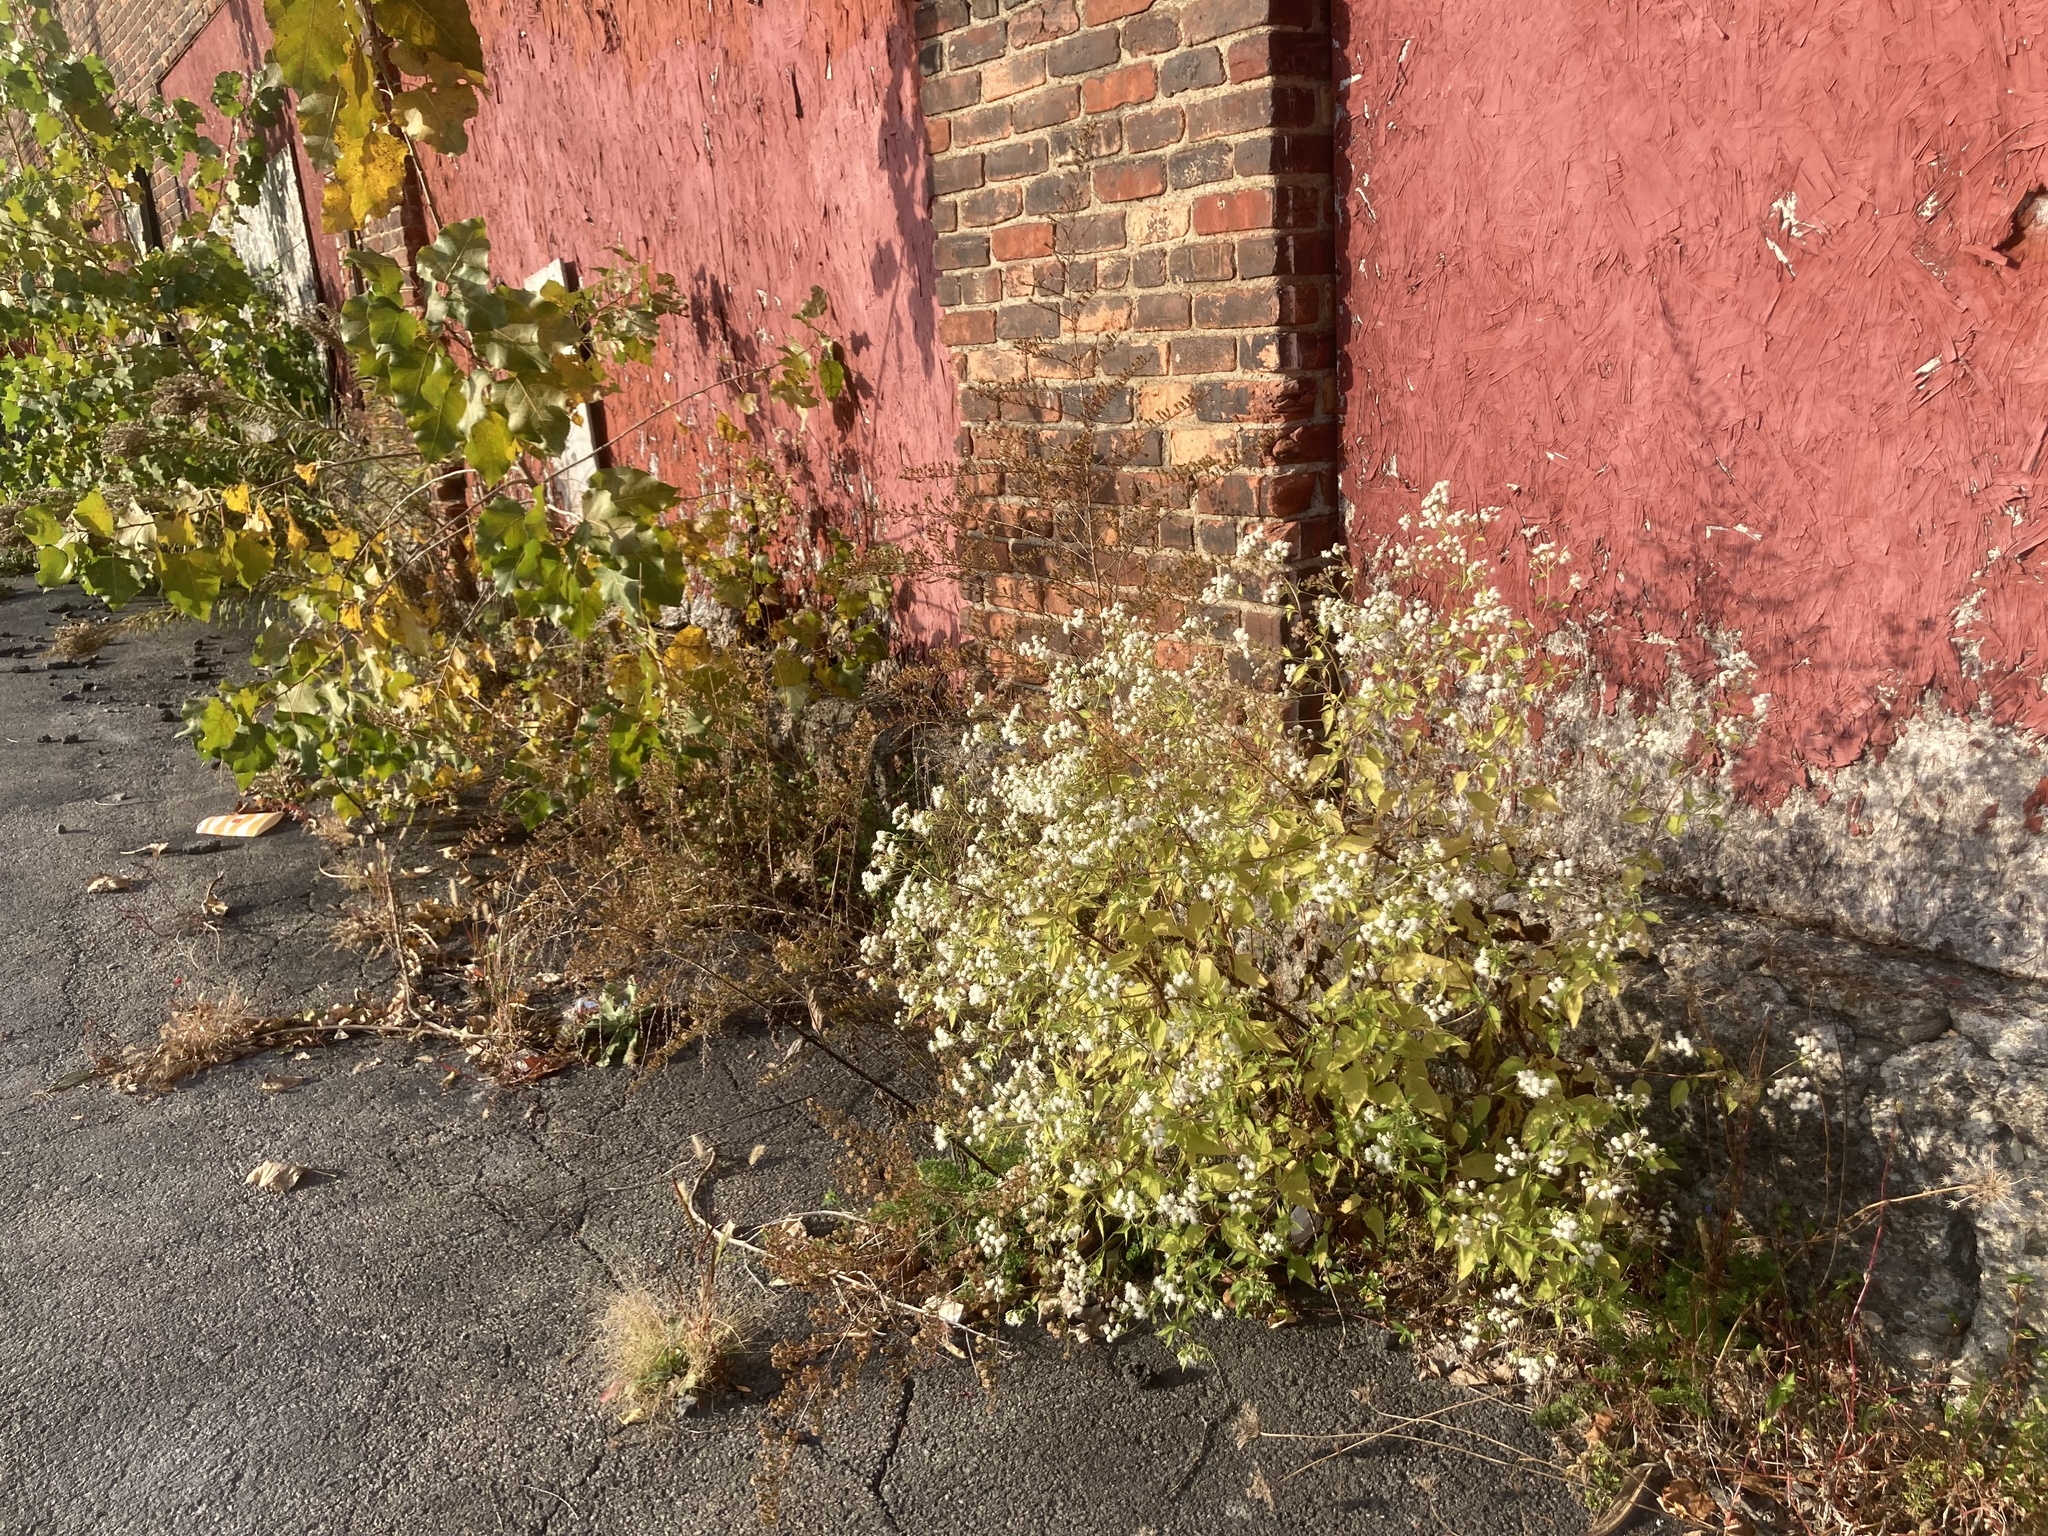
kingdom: Plantae
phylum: Tracheophyta
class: Magnoliopsida
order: Asterales
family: Asteraceae
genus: Ageratina
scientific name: Ageratina altissima
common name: White snakeroot
